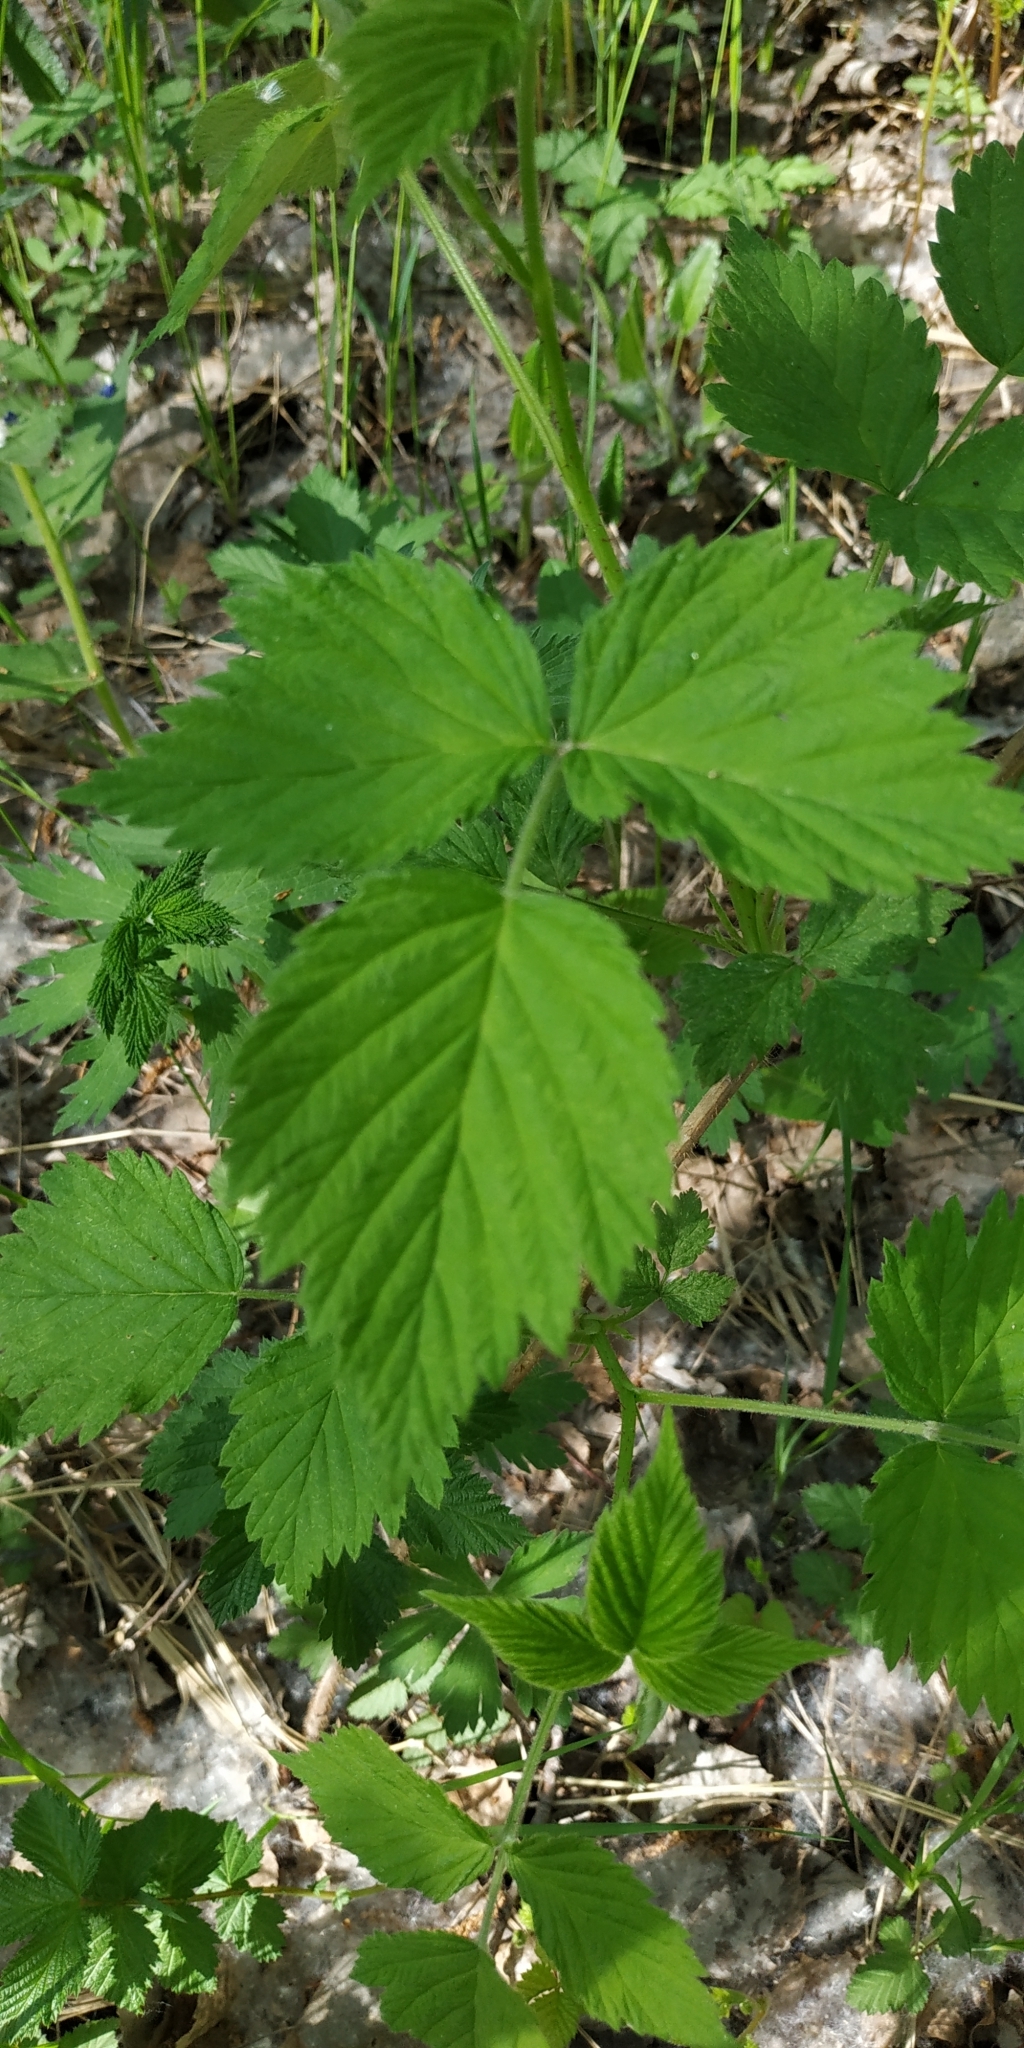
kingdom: Plantae
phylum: Tracheophyta
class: Magnoliopsida
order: Rosales
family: Rosaceae
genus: Rubus
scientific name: Rubus idaeus
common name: Raspberry
